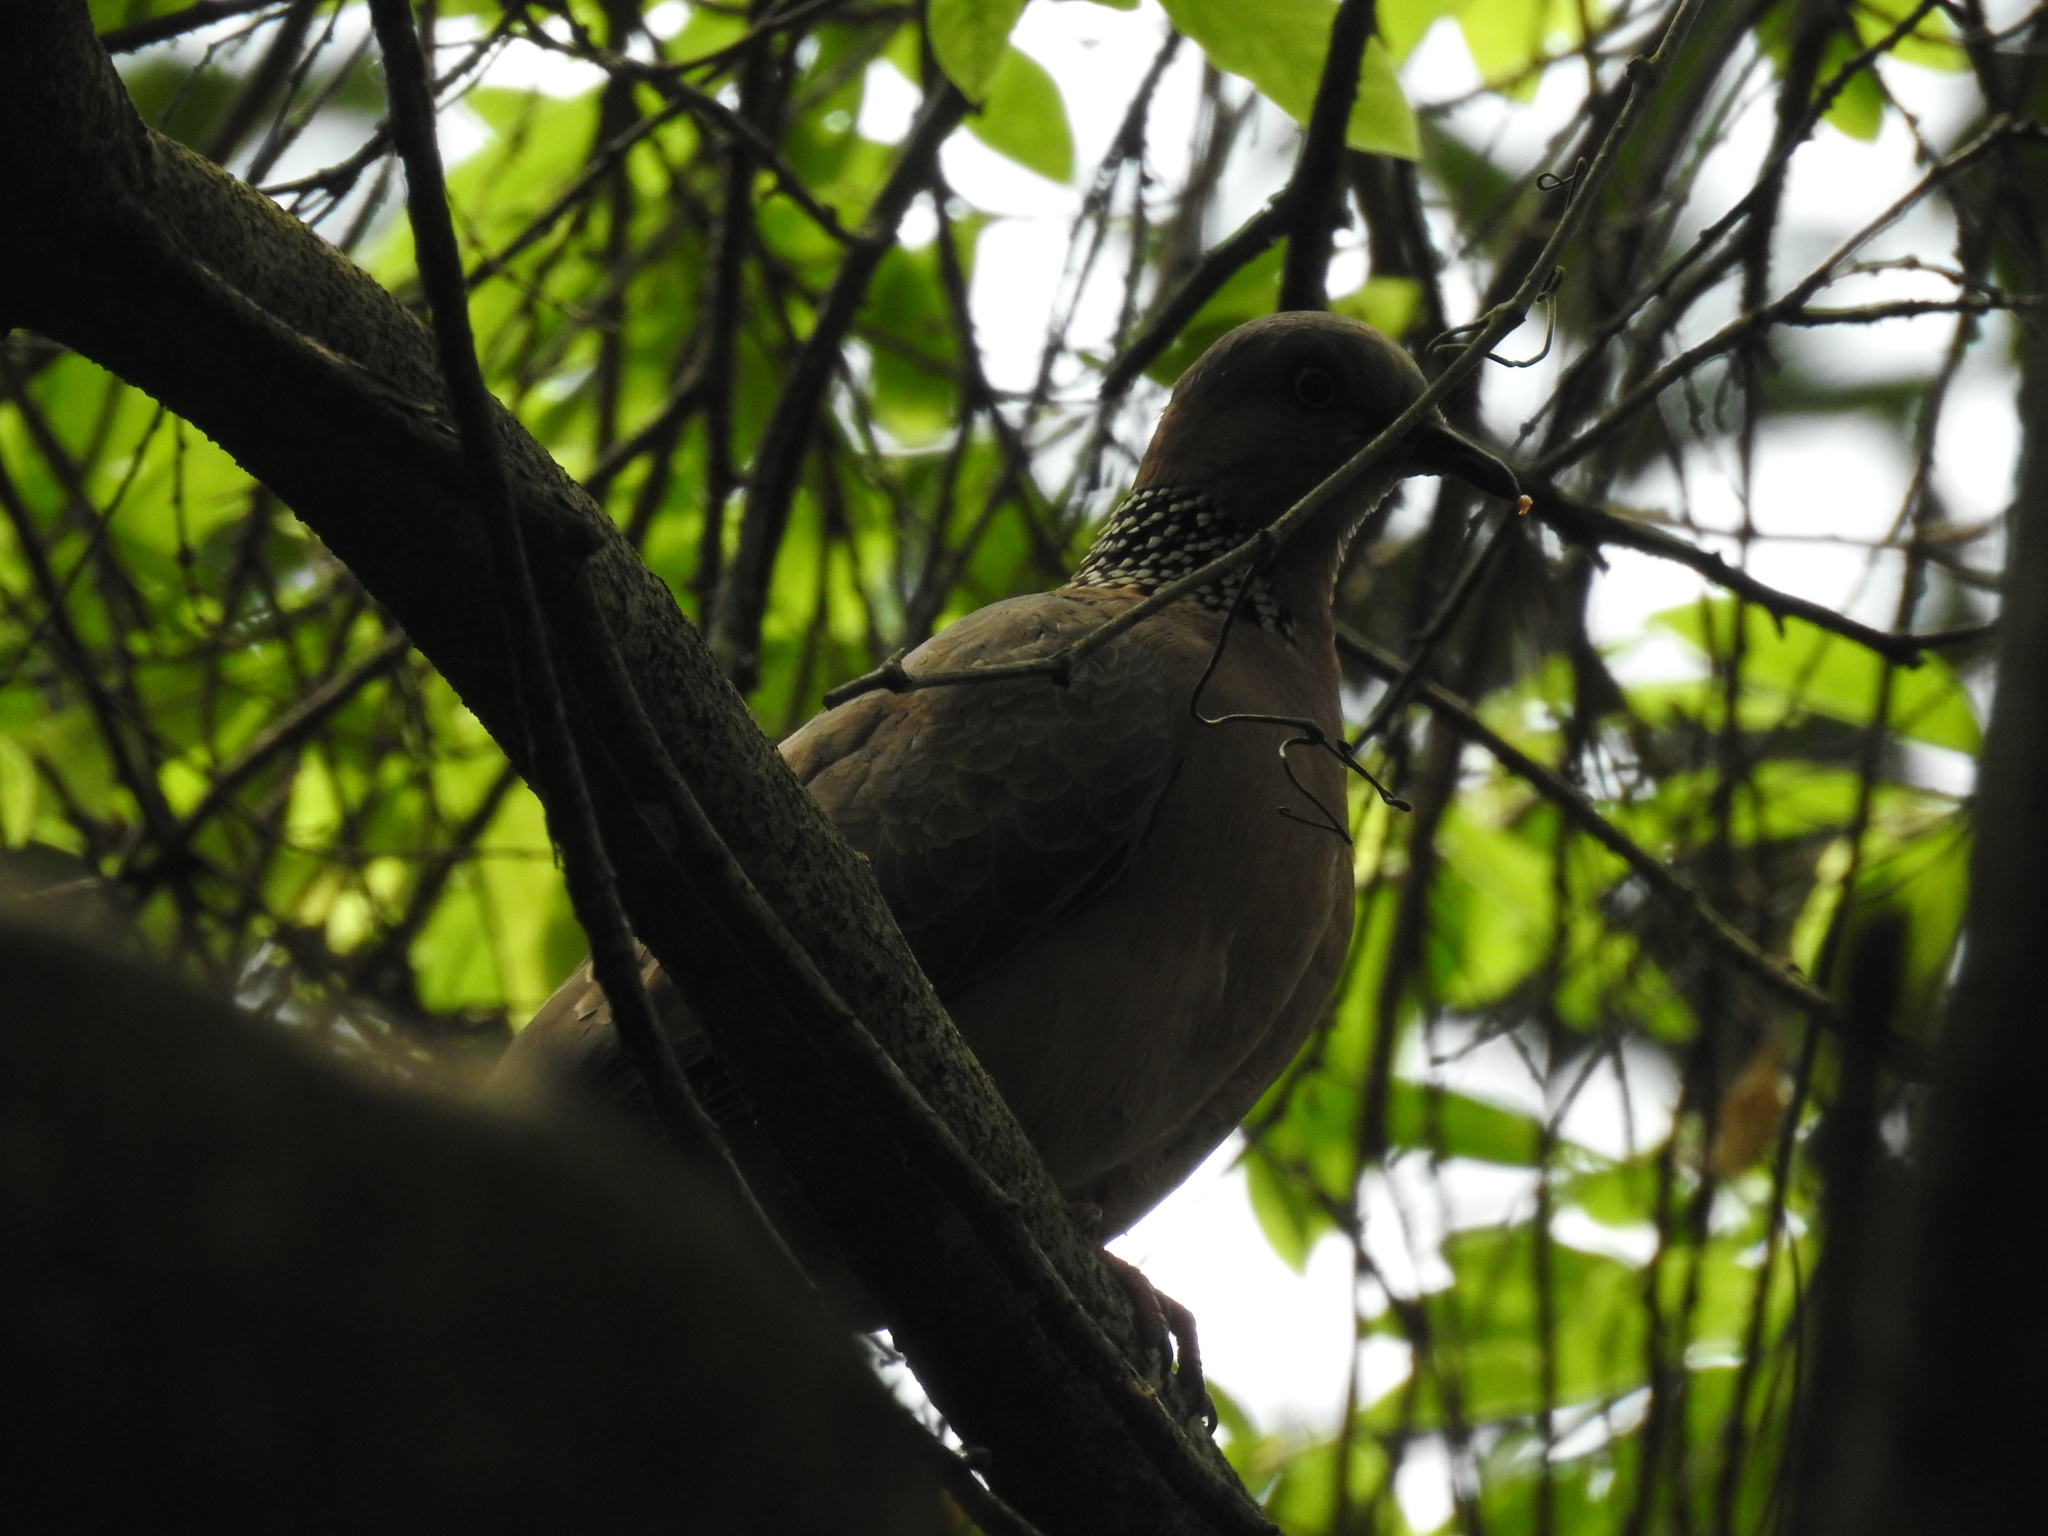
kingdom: Animalia
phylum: Chordata
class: Aves
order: Columbiformes
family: Columbidae
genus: Spilopelia
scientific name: Spilopelia chinensis
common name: Spotted dove
